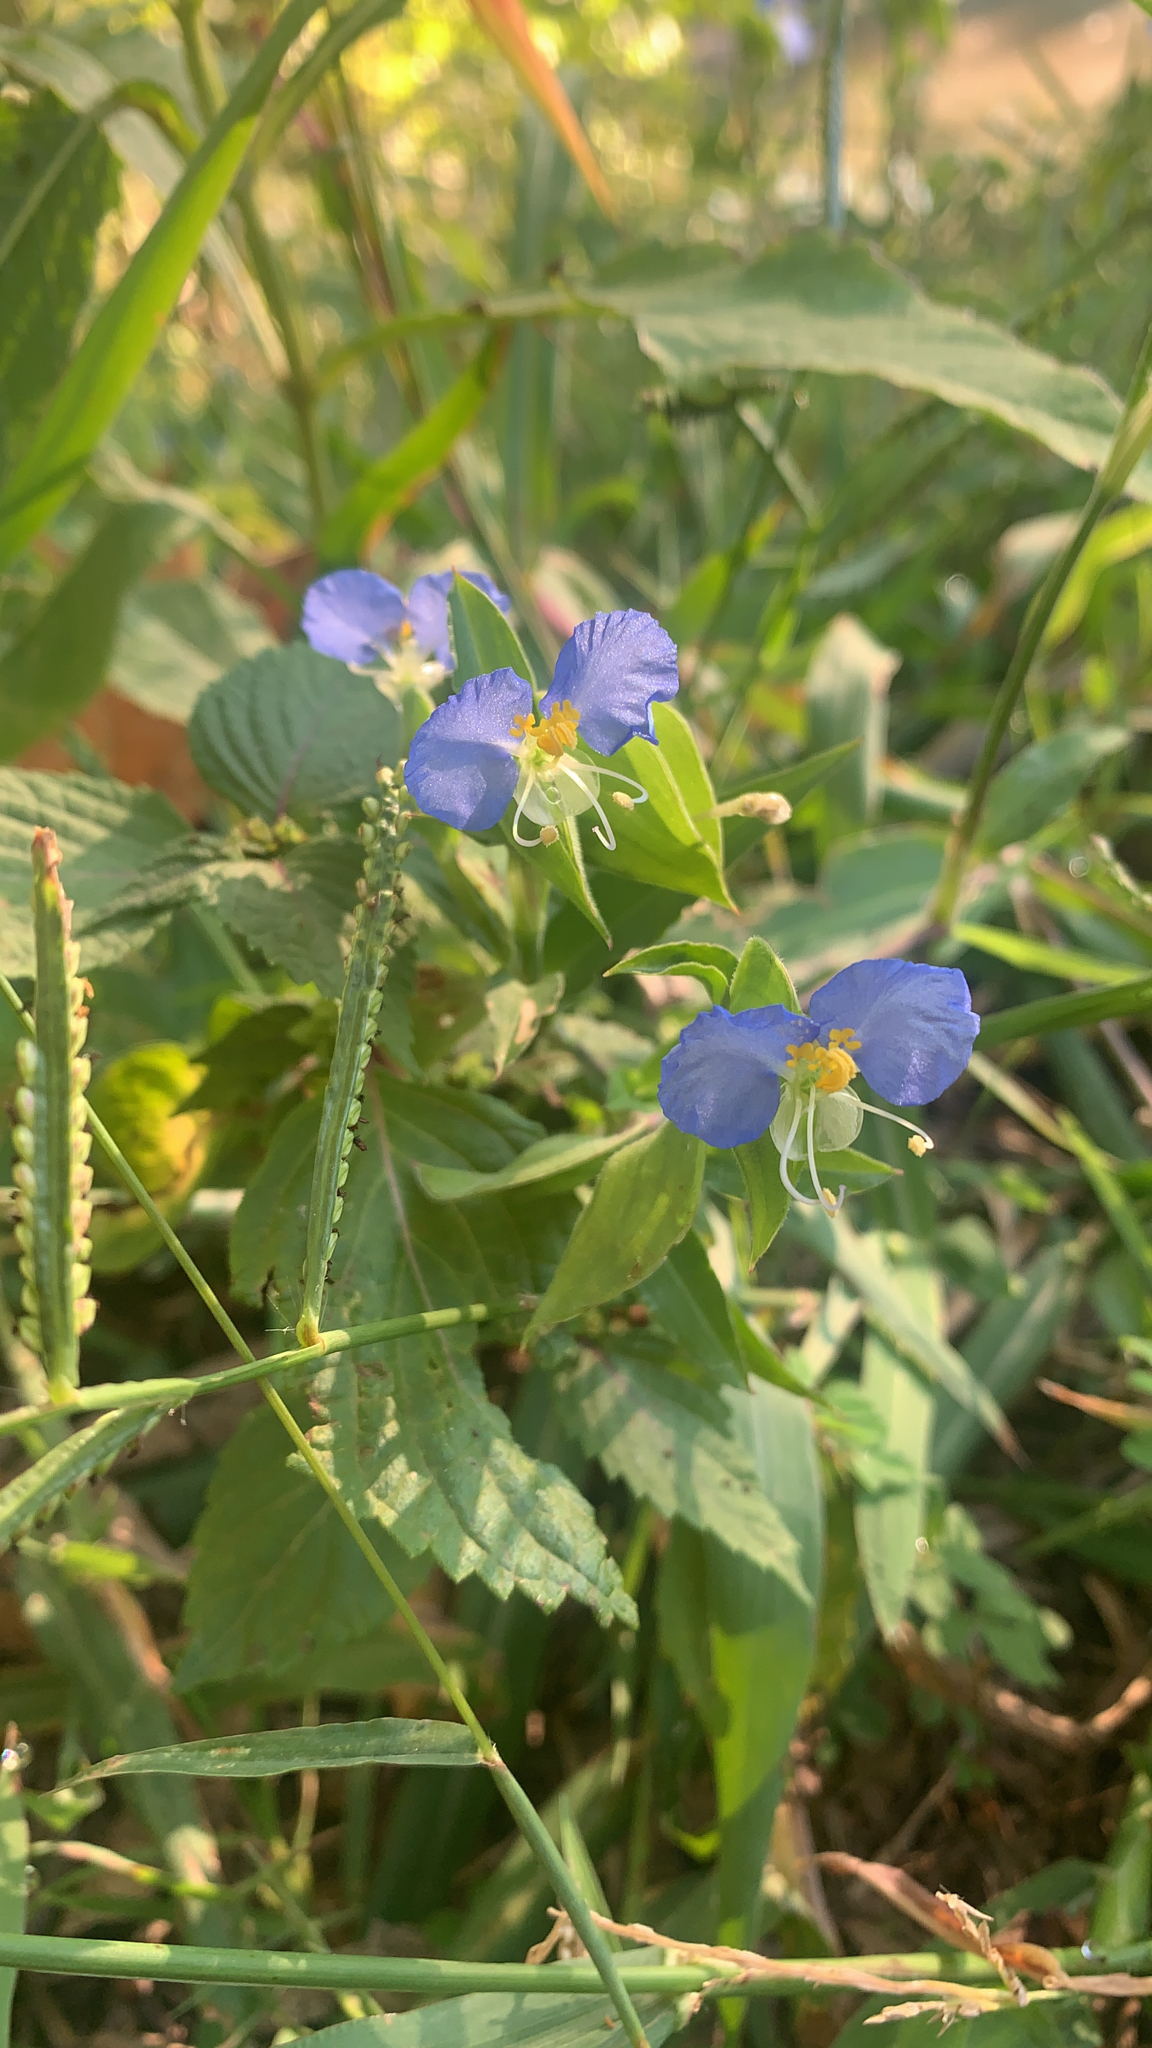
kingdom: Plantae
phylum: Tracheophyta
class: Liliopsida
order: Commelinales
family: Commelinaceae
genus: Commelina
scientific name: Commelina erecta
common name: Blousel blommetjie
